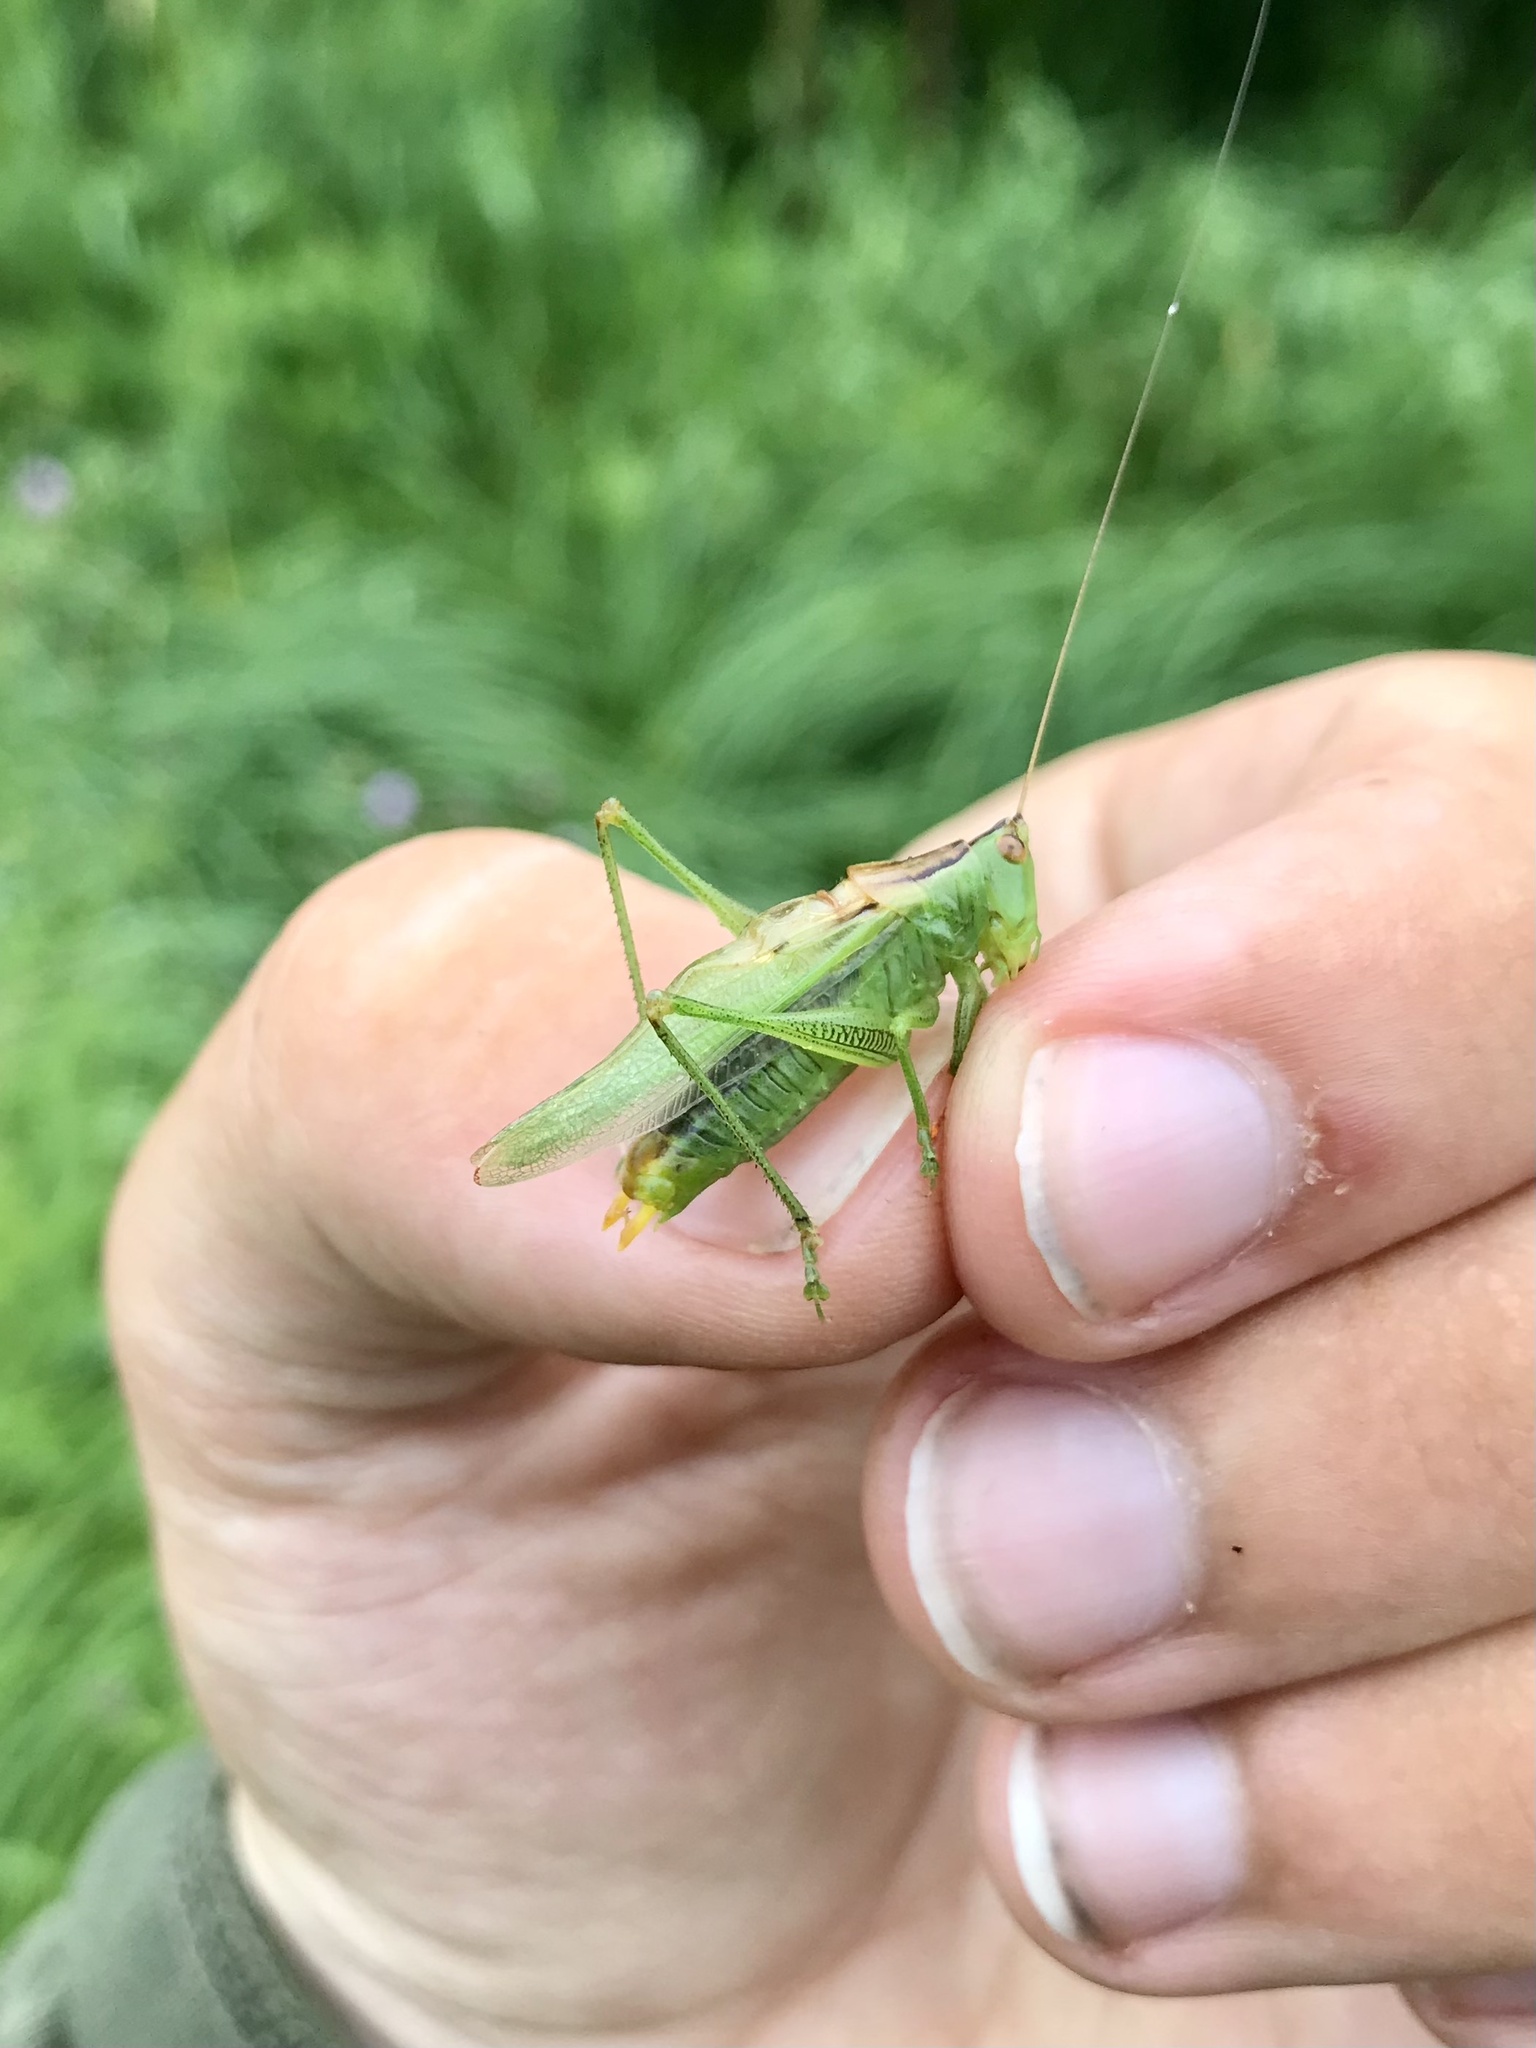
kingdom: Animalia
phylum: Arthropoda
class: Insecta
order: Orthoptera
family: Tettigoniidae
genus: Orchelimum
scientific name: Orchelimum gladiator
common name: Gladiator meadow katydid
